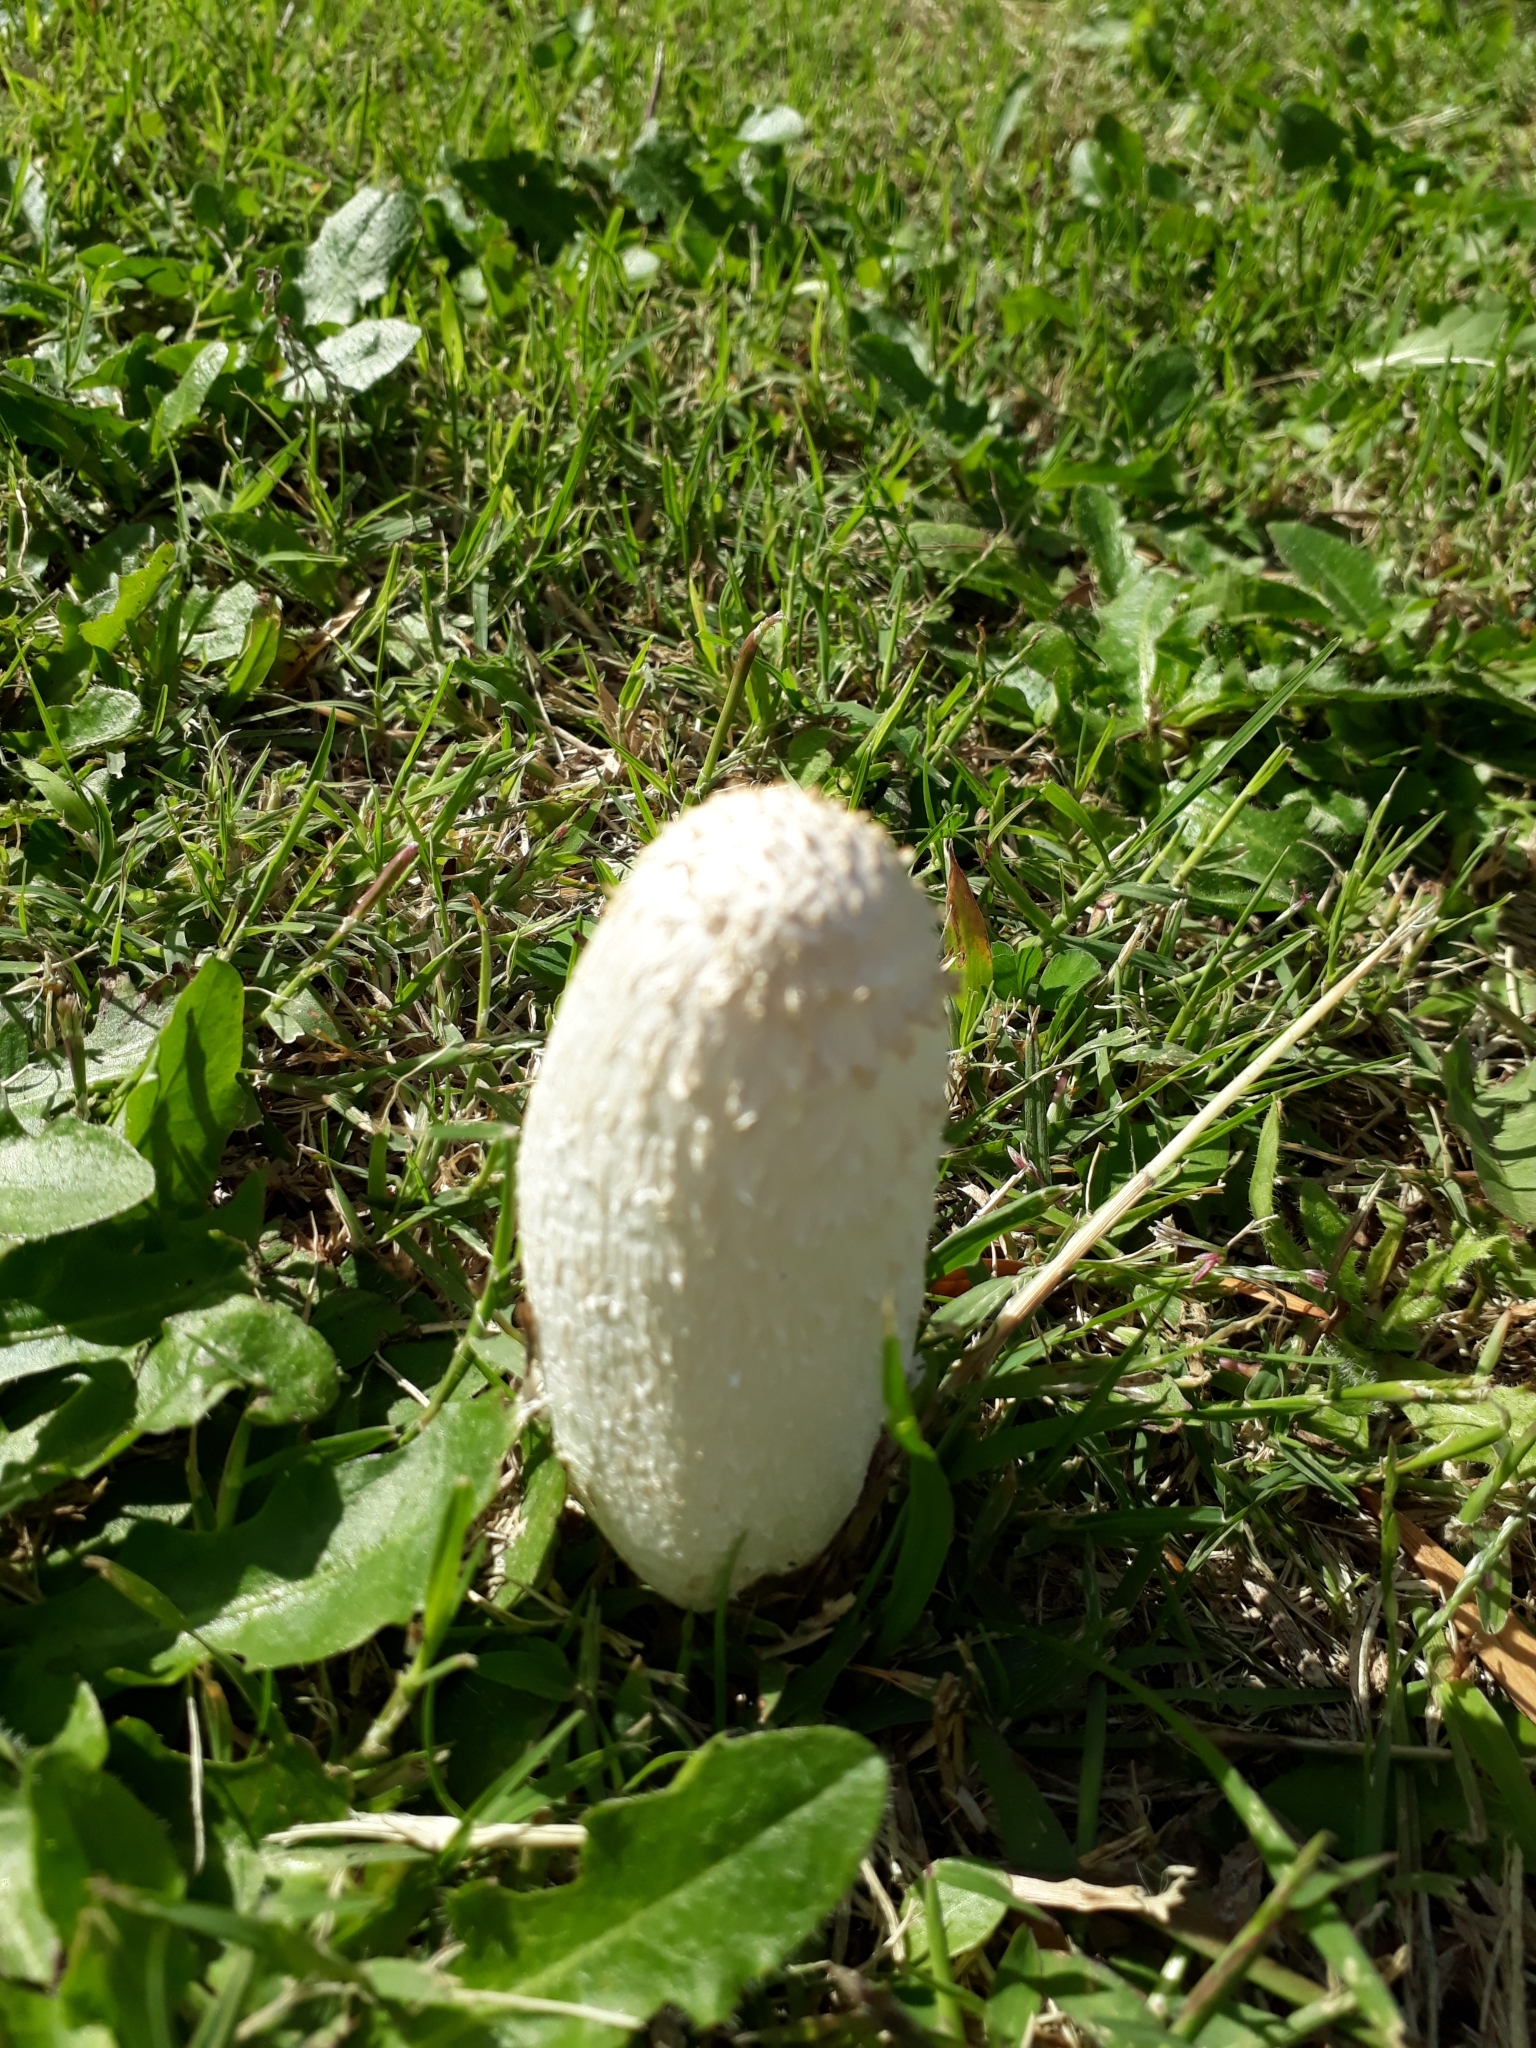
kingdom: Fungi
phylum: Basidiomycota
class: Agaricomycetes
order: Agaricales
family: Agaricaceae
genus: Coprinus
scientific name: Coprinus comatus
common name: Lawyer's wig
